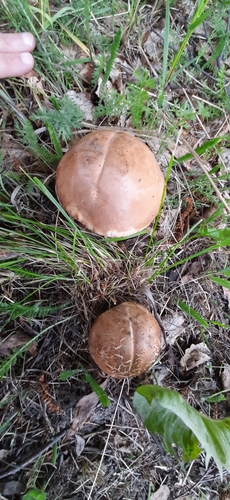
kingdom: Fungi
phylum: Basidiomycota
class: Agaricomycetes
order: Boletales
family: Boletaceae
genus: Leccinum
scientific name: Leccinum scabrum
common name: Blushing bolete
